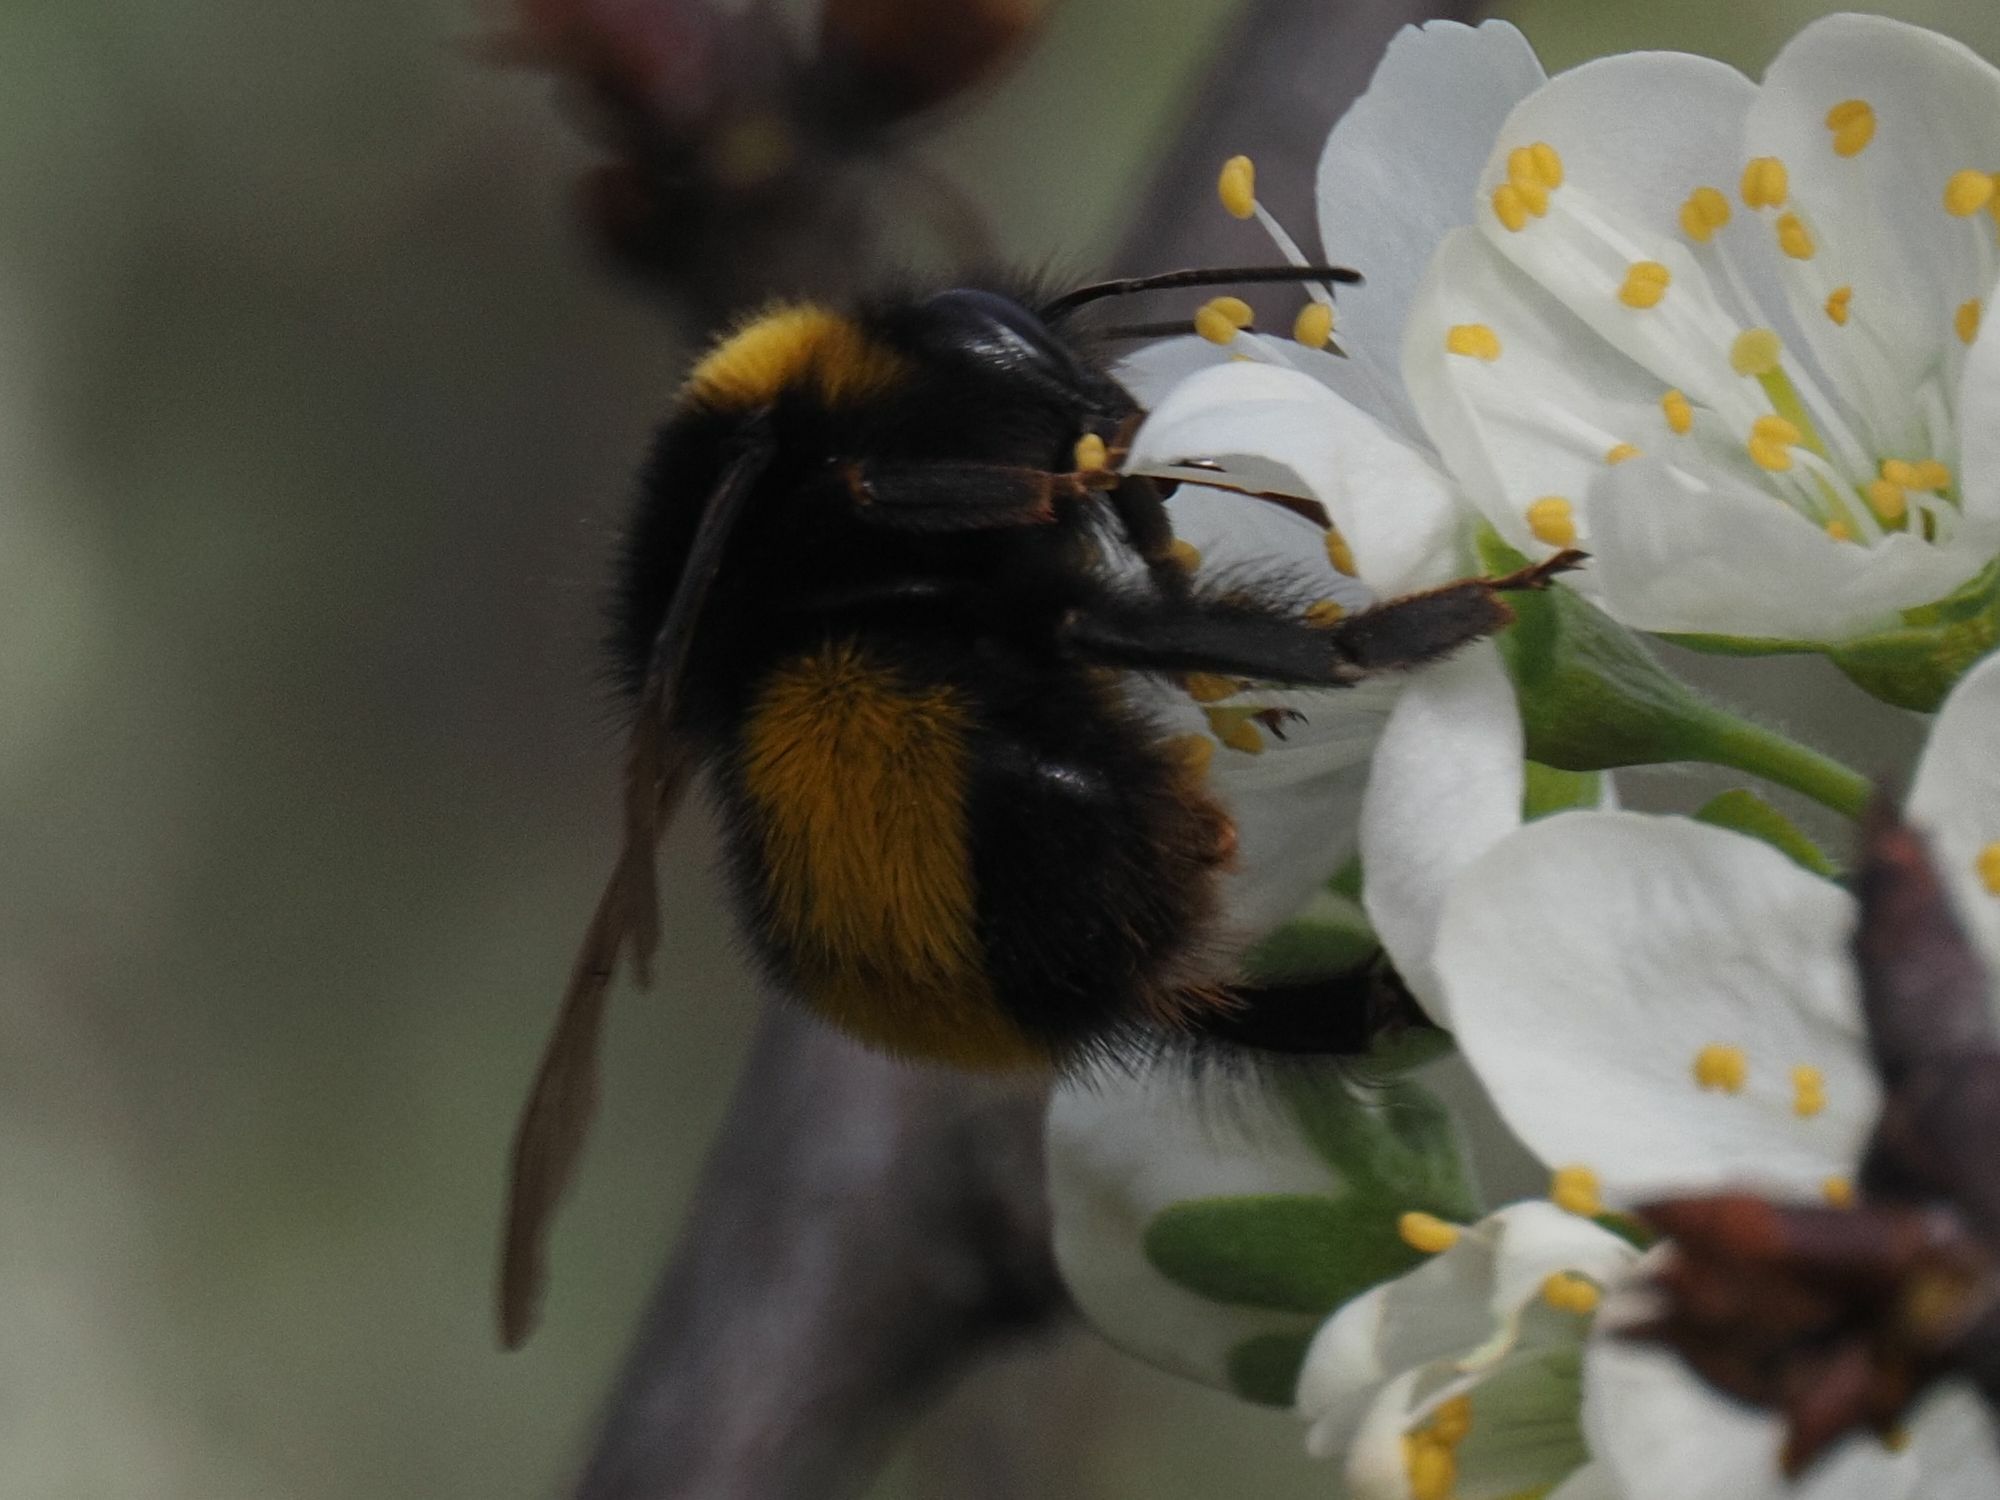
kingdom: Animalia
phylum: Arthropoda
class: Insecta
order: Hymenoptera
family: Apidae
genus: Bombus
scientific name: Bombus haematurus
